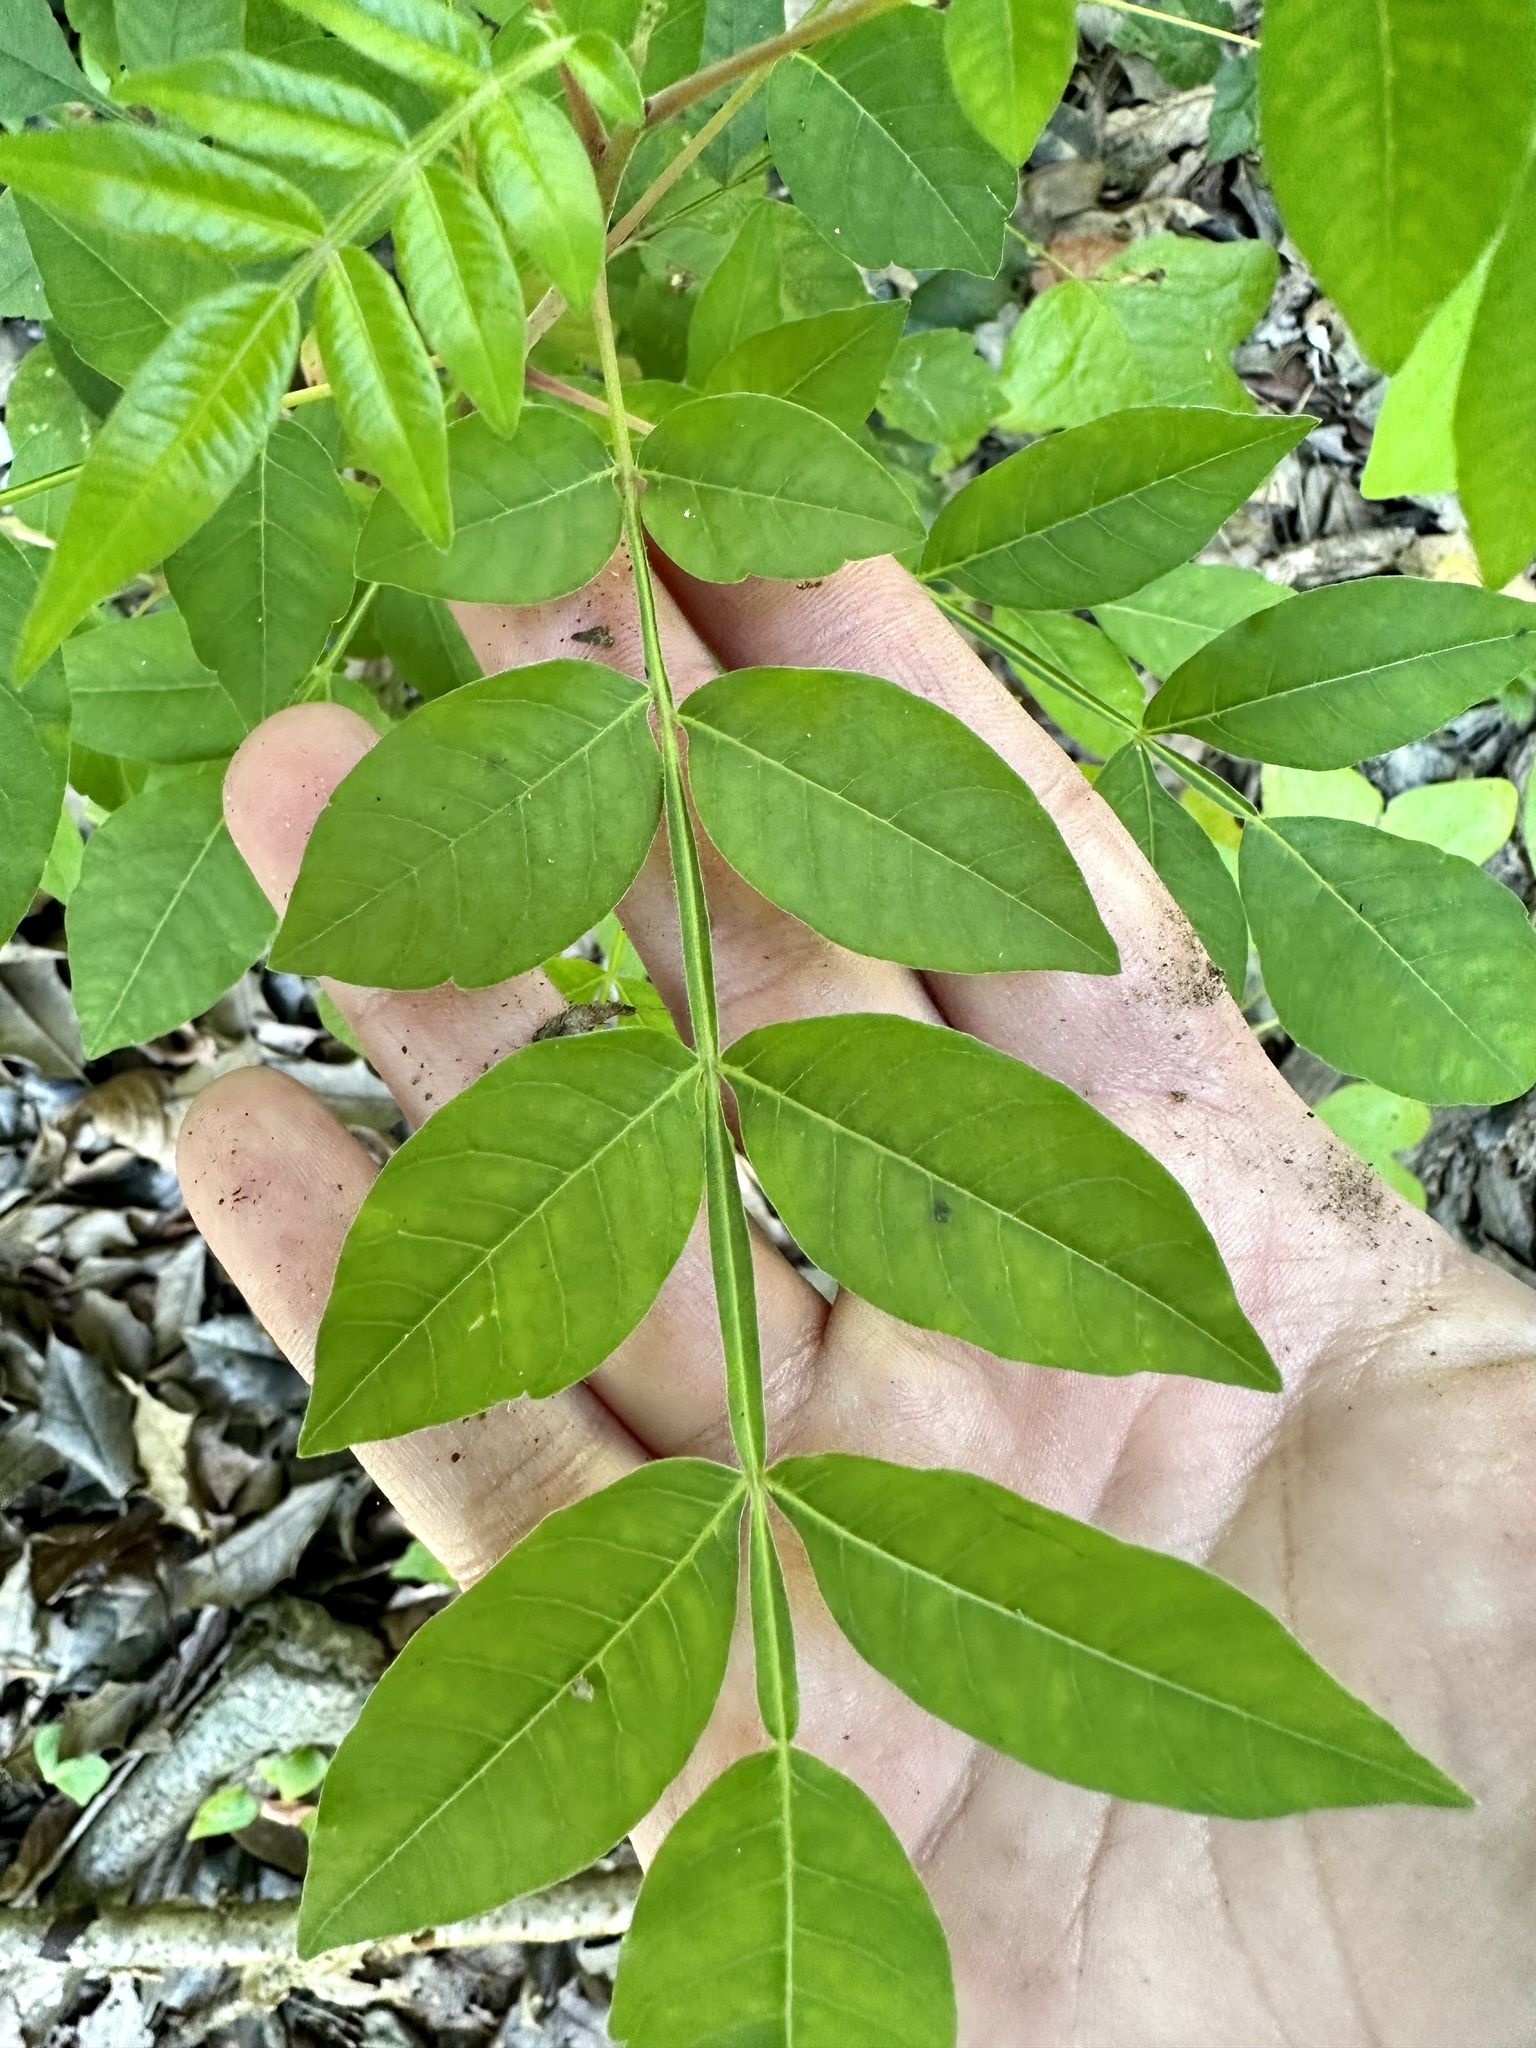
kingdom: Plantae
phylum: Tracheophyta
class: Magnoliopsida
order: Sapindales
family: Anacardiaceae
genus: Rhus
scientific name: Rhus copallina
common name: Shining sumac
